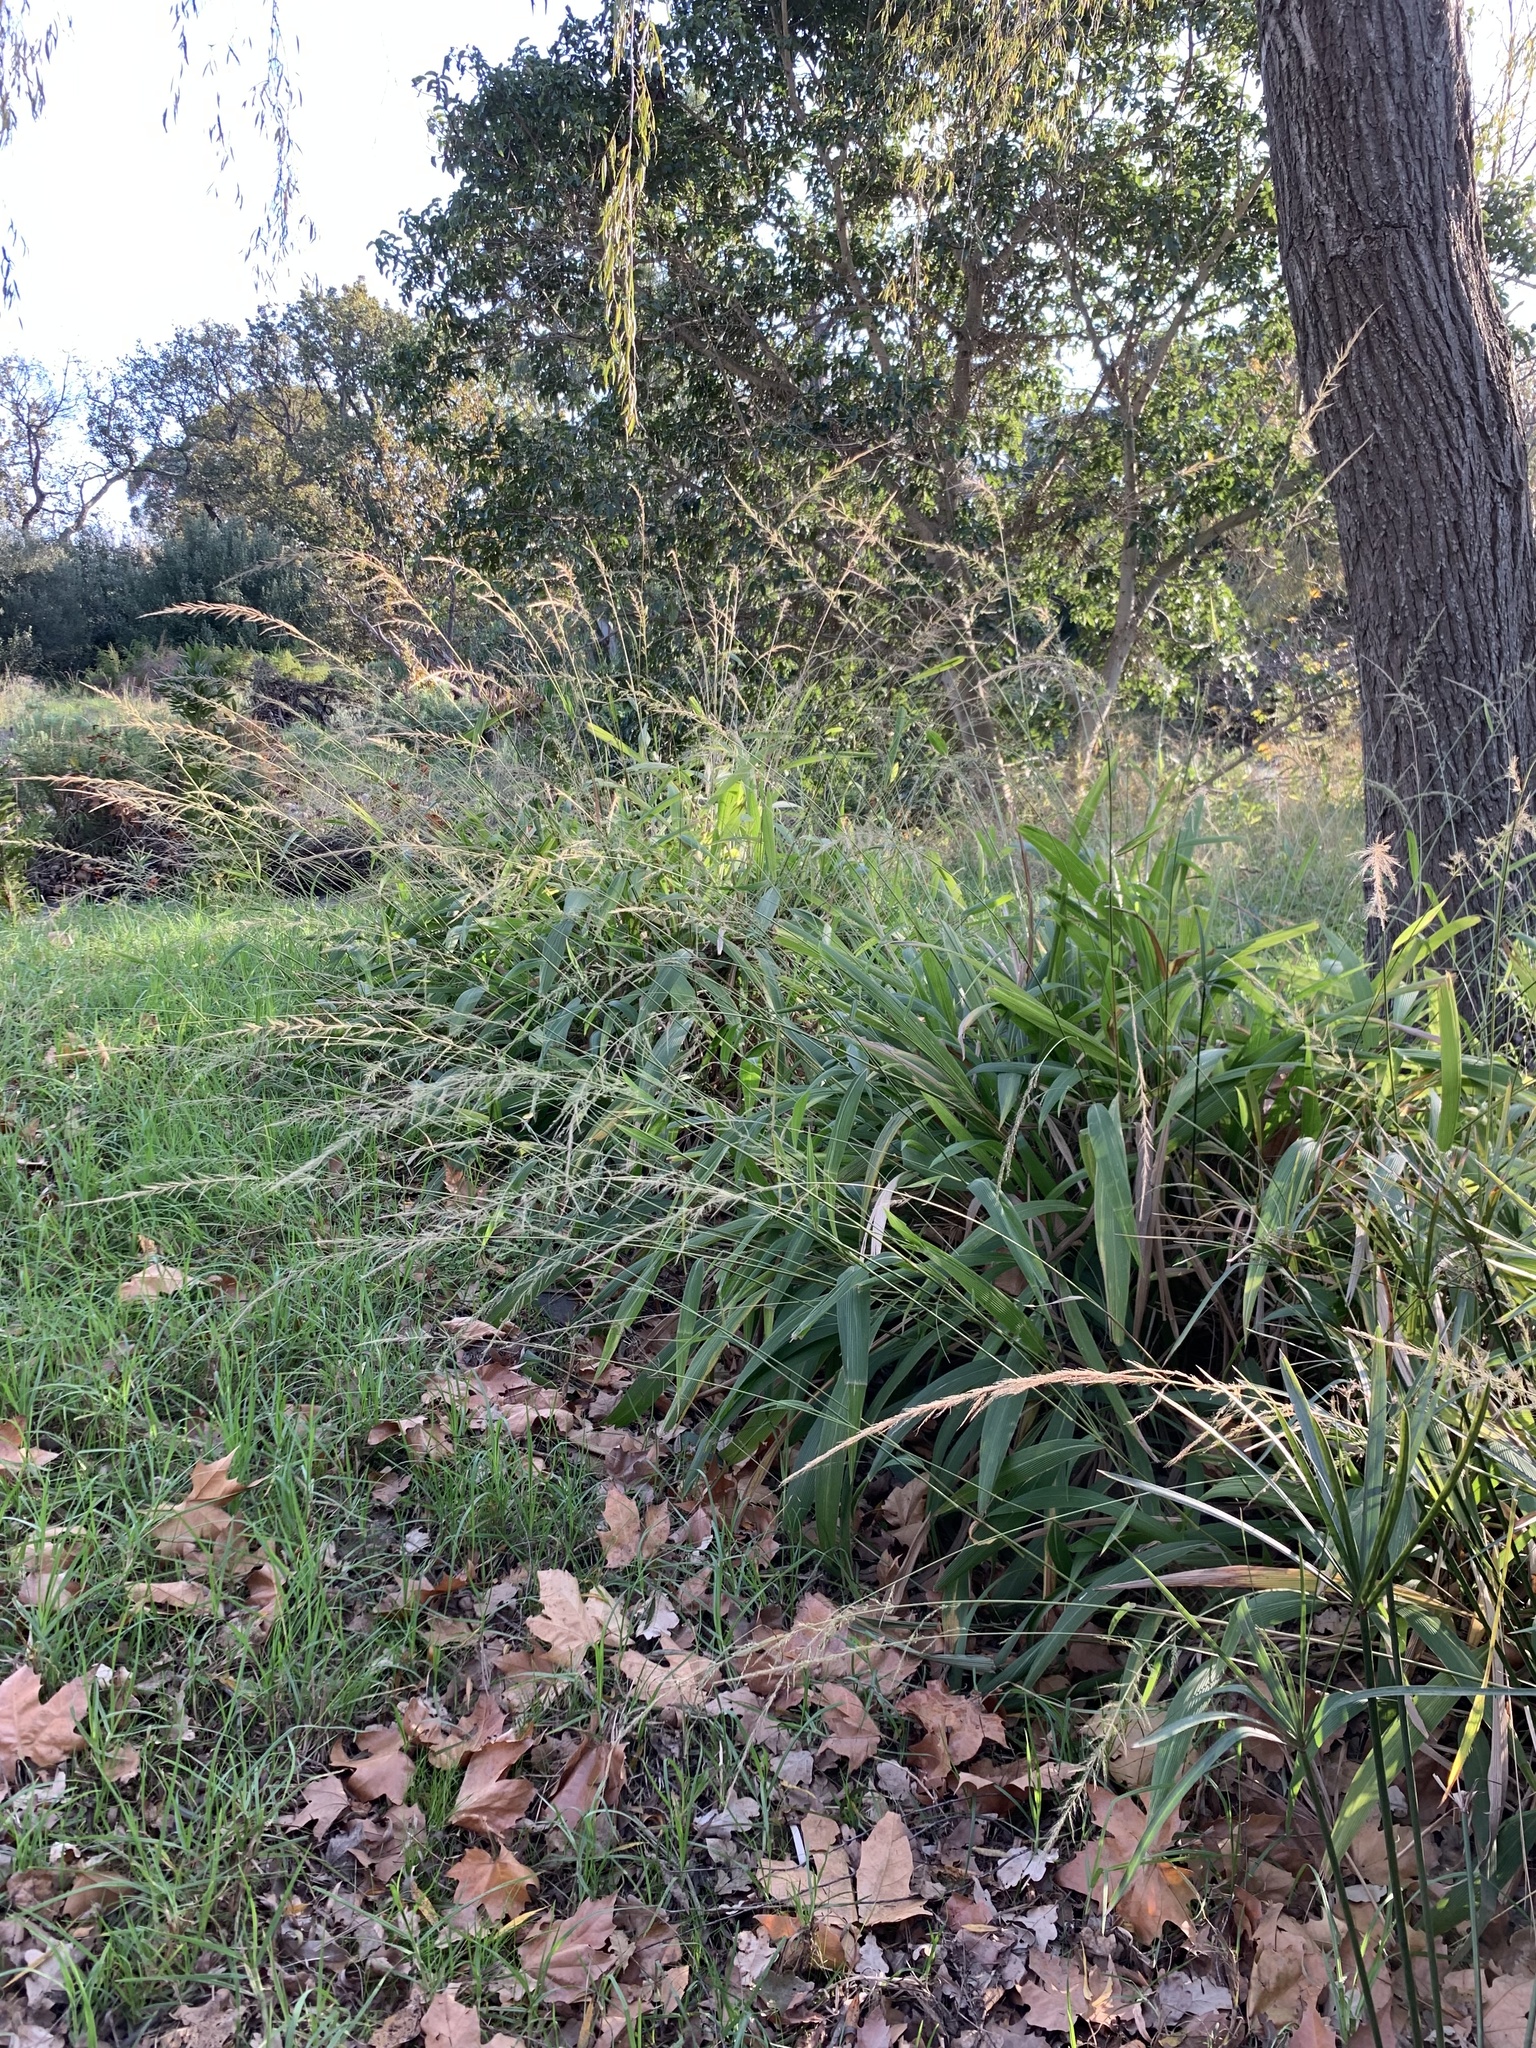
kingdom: Plantae
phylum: Tracheophyta
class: Liliopsida
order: Poales
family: Poaceae
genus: Setaria
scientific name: Setaria megaphylla
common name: Bigleaf bristlegrass
